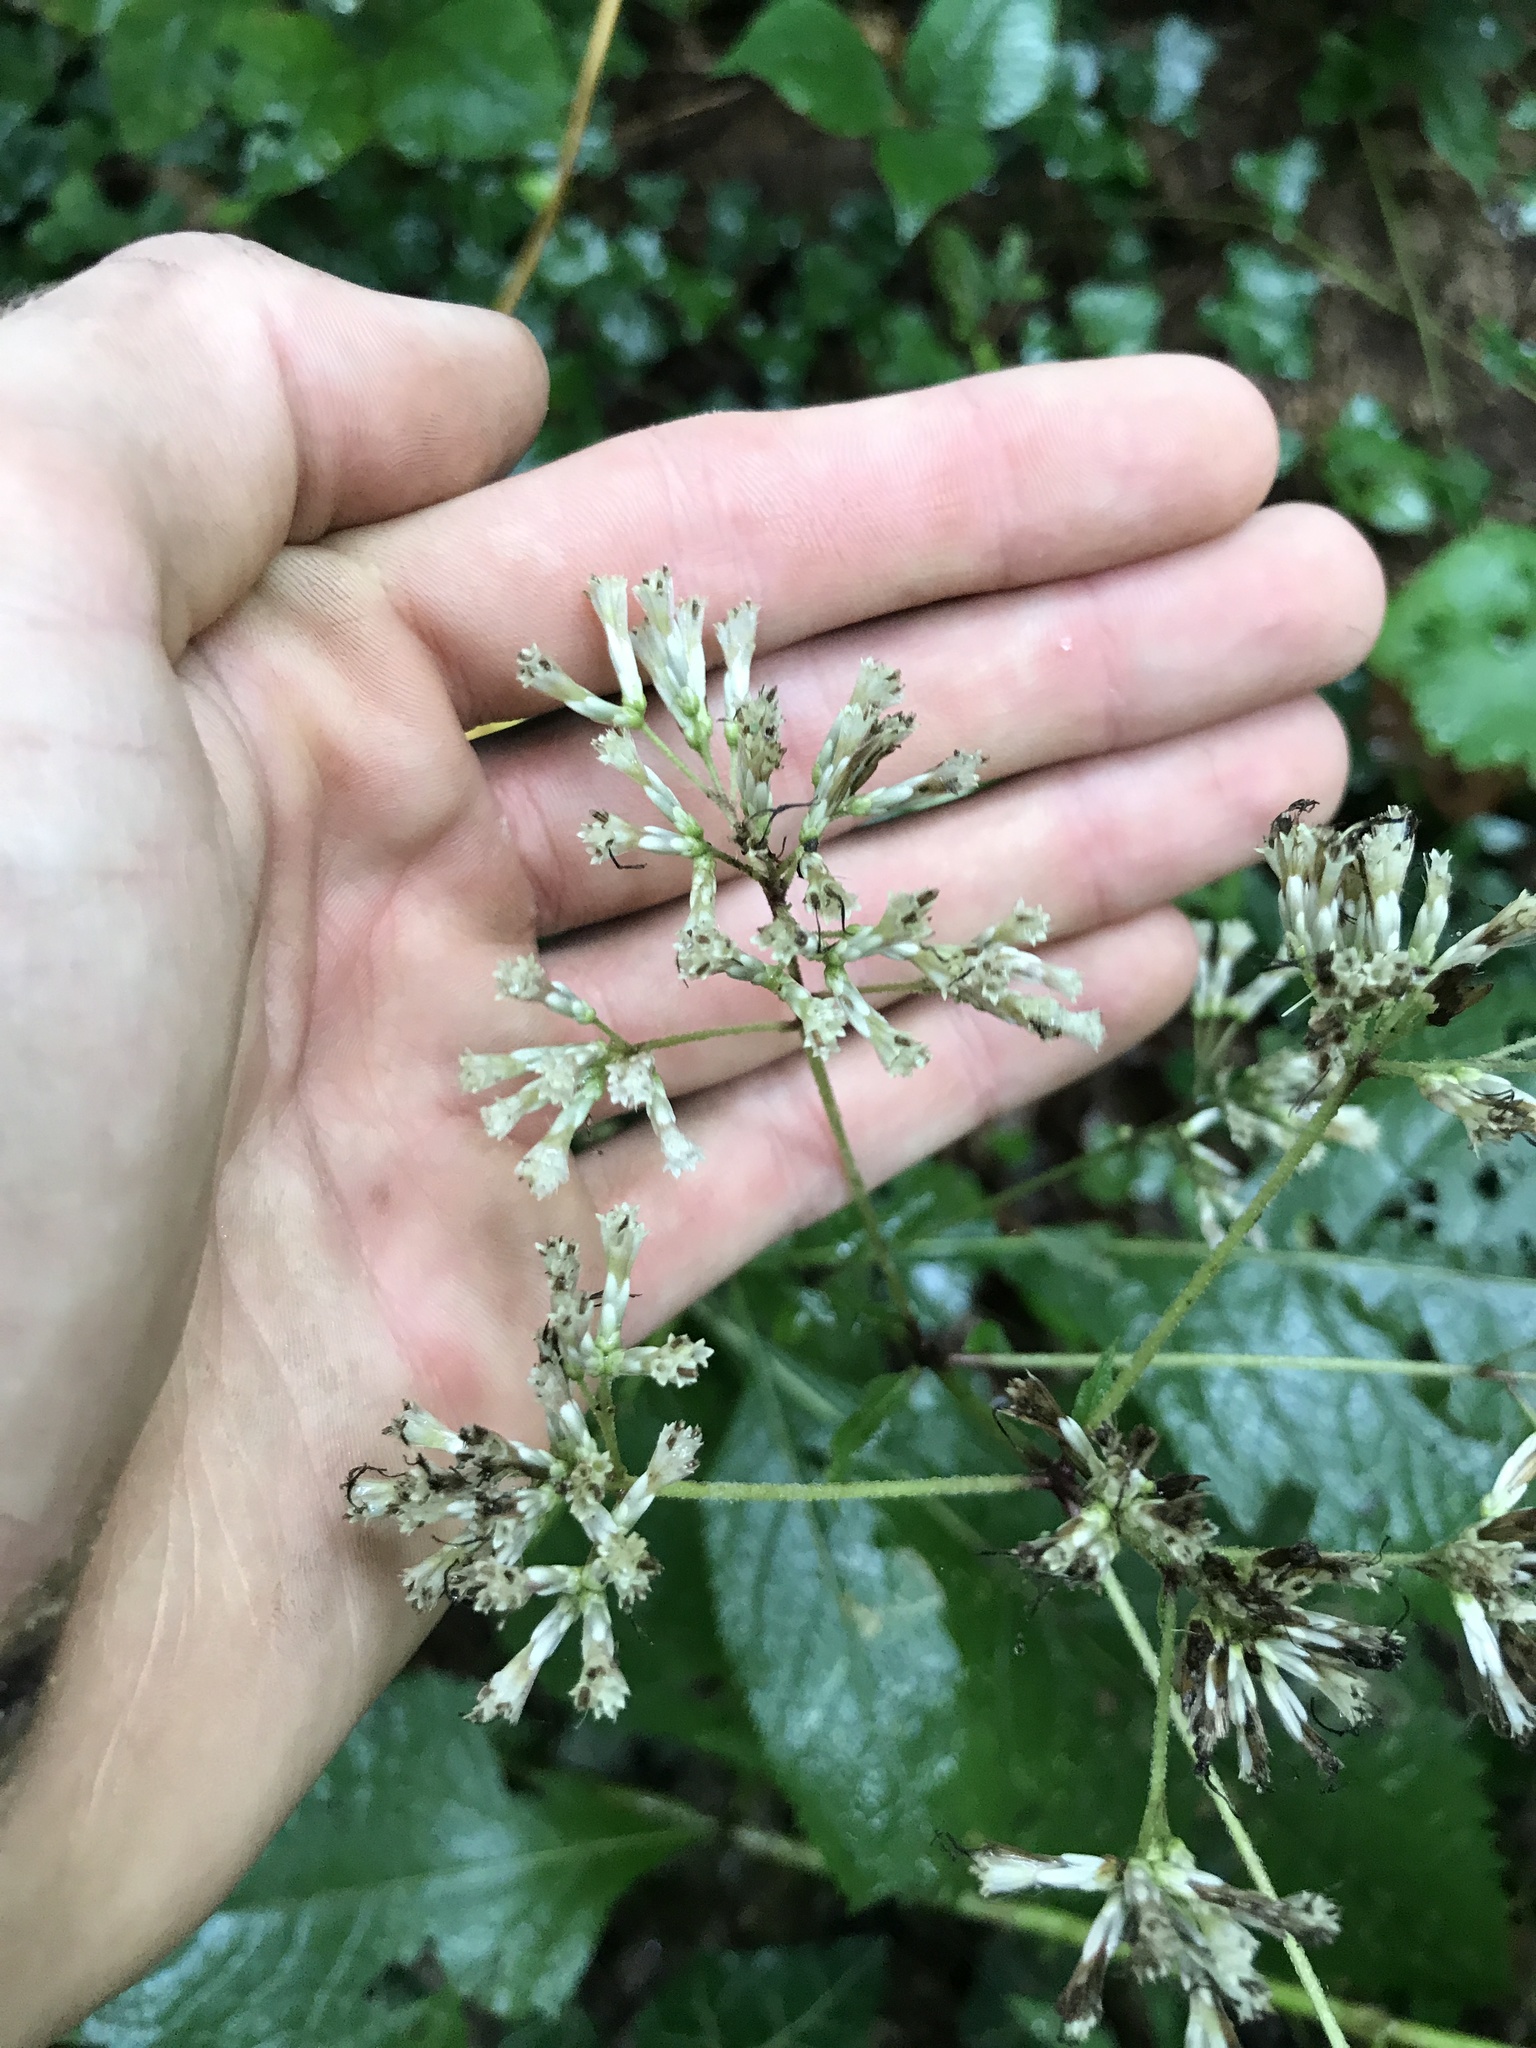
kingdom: Plantae
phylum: Tracheophyta
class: Magnoliopsida
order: Asterales
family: Asteraceae
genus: Eutrochium
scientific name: Eutrochium purpureum
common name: Gravelroot
